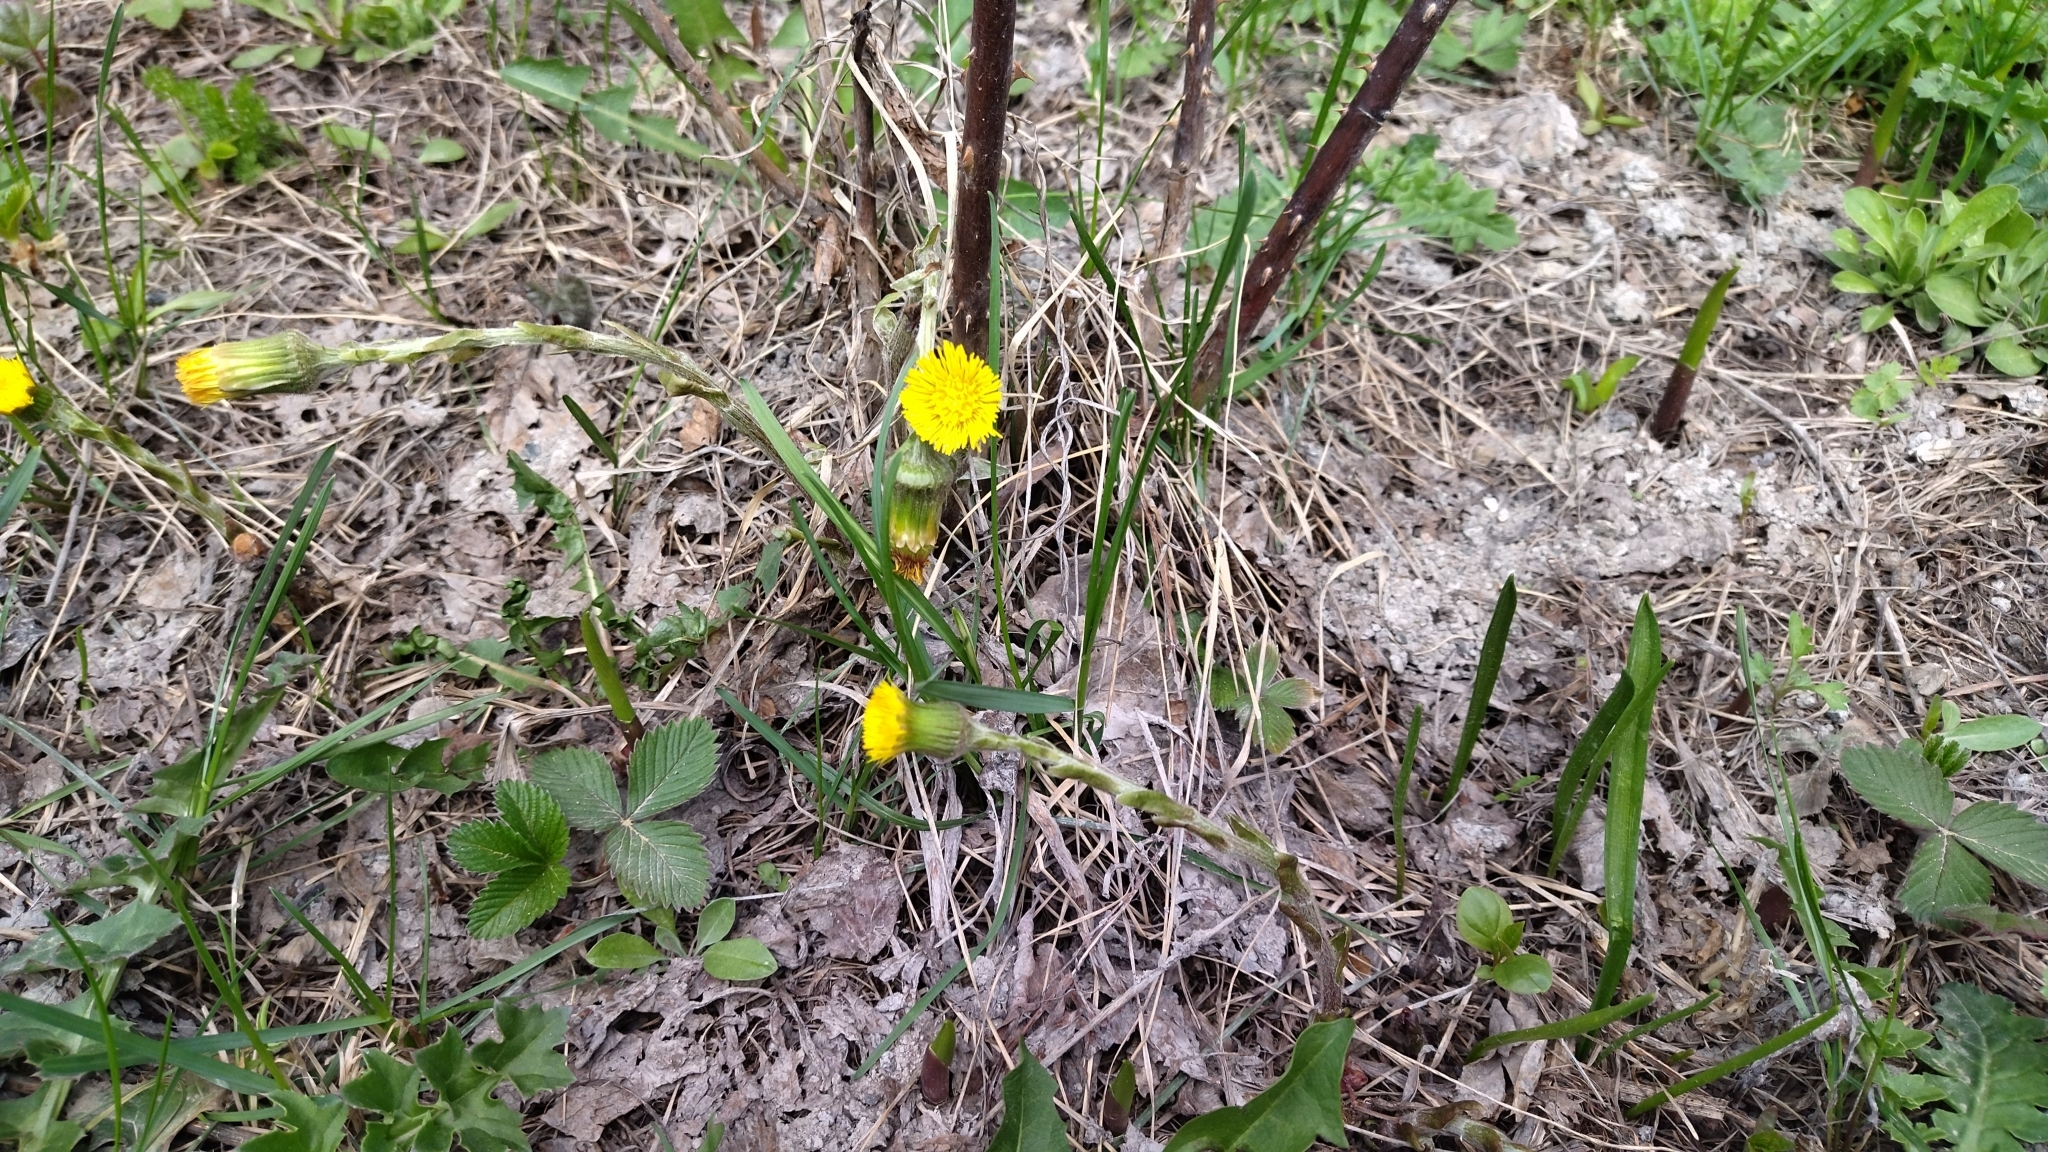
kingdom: Plantae
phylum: Tracheophyta
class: Magnoliopsida
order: Asterales
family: Asteraceae
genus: Tussilago
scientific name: Tussilago farfara
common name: Coltsfoot
